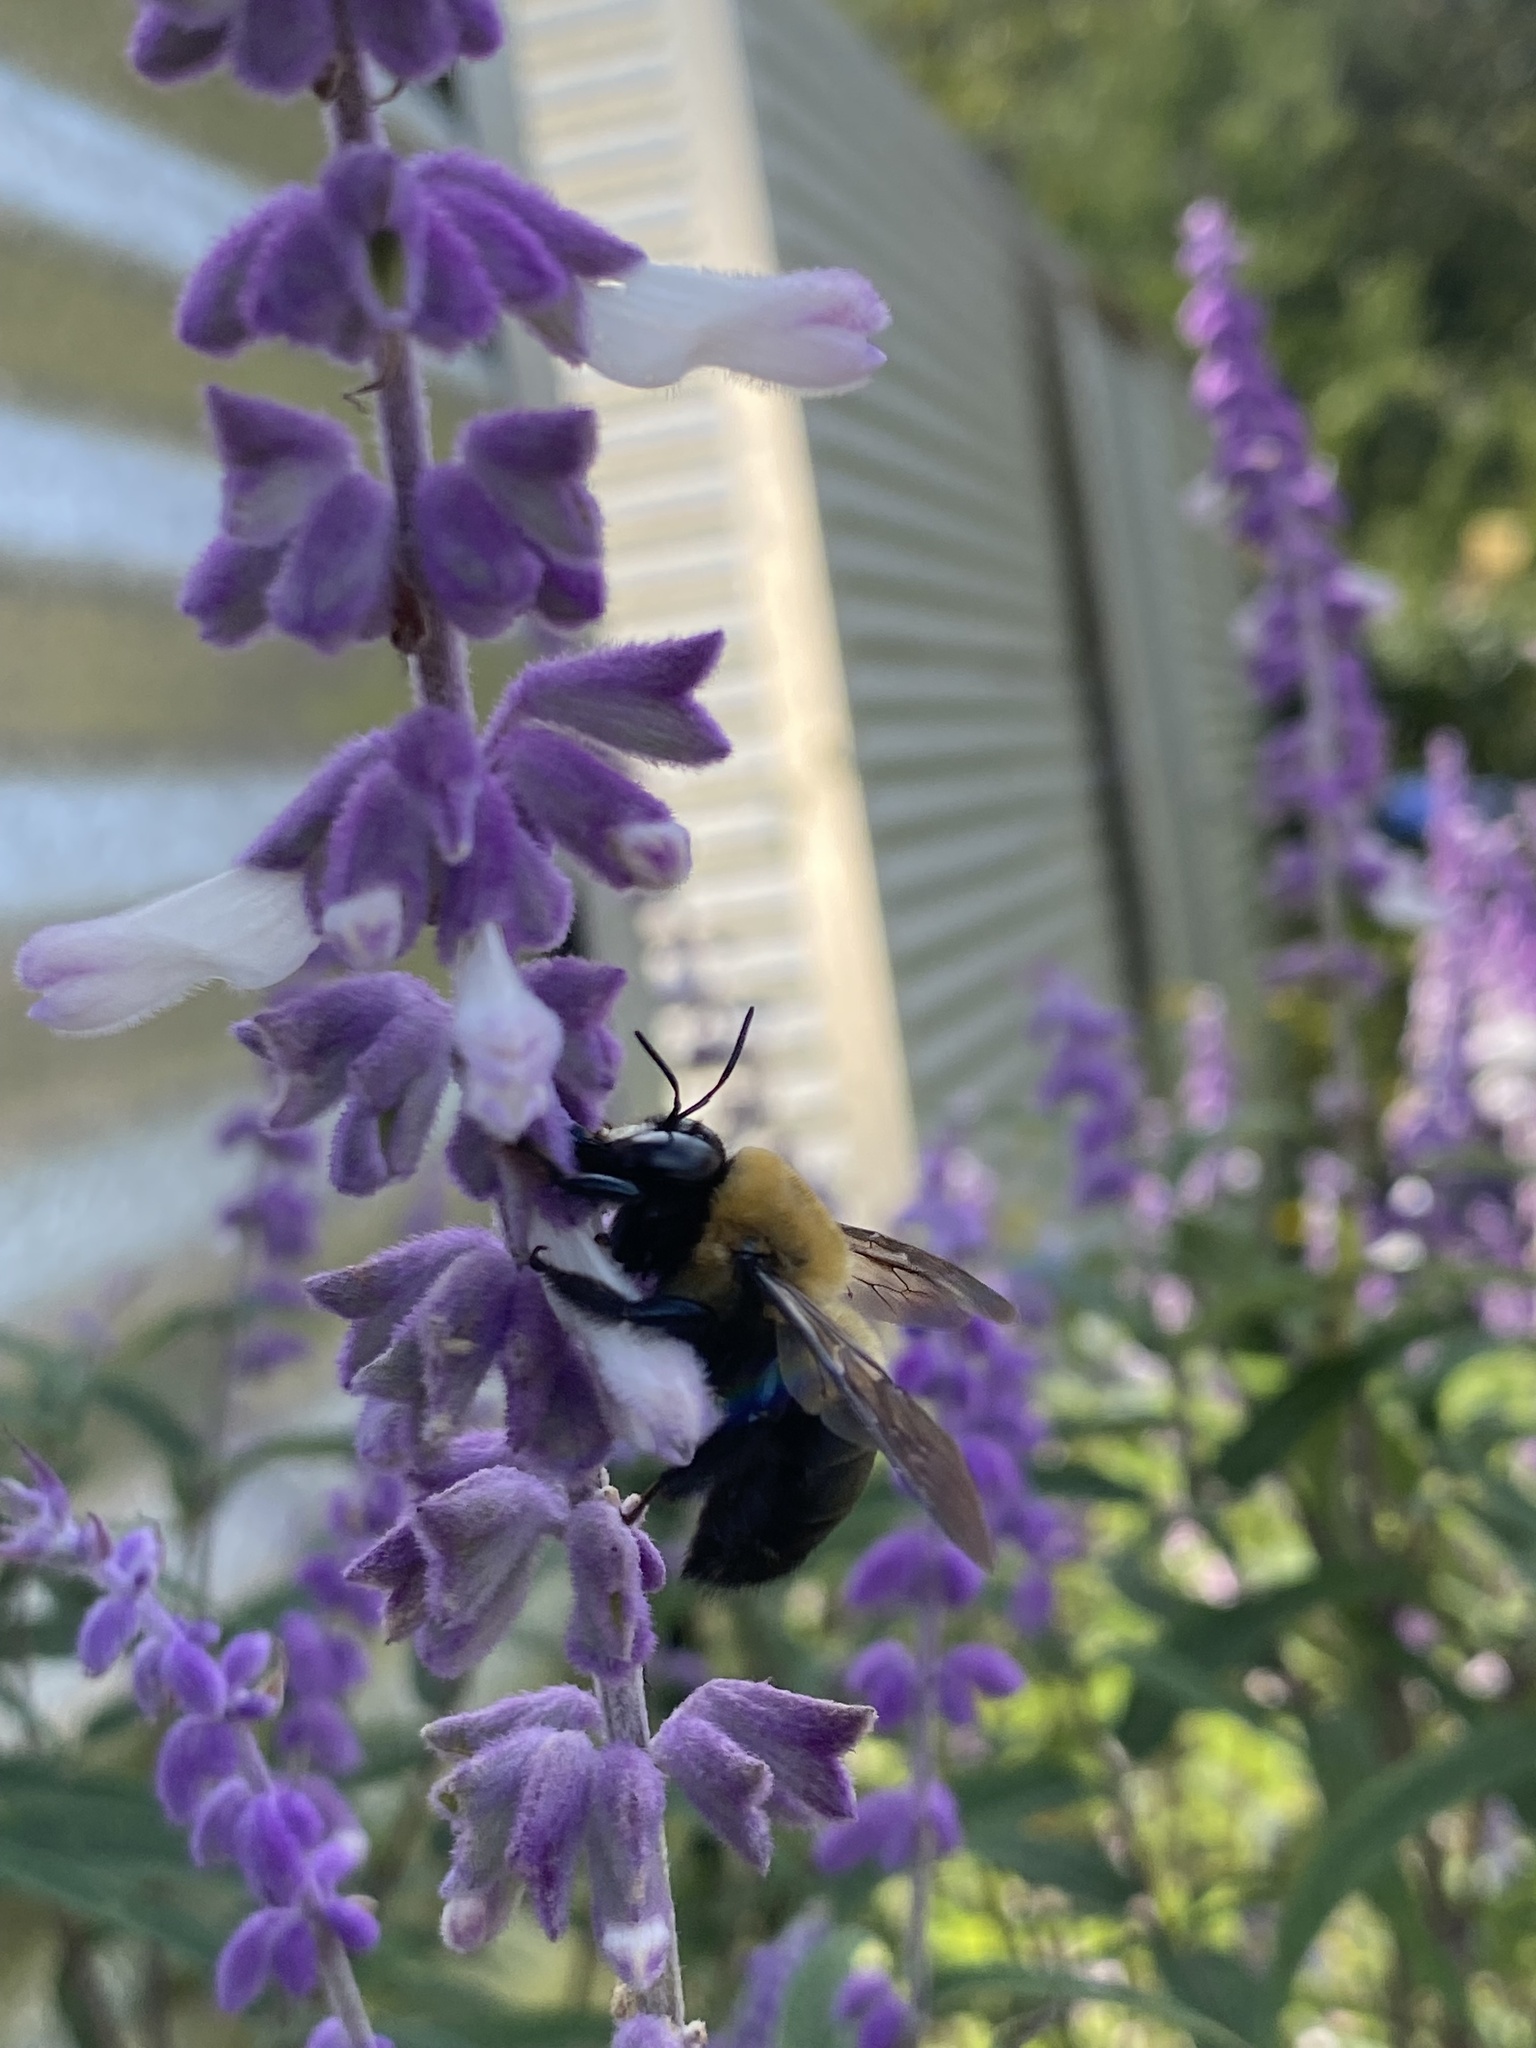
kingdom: Animalia
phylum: Arthropoda
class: Insecta
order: Hymenoptera
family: Apidae
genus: Xylocopa
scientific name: Xylocopa virginica
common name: Carpenter bee
